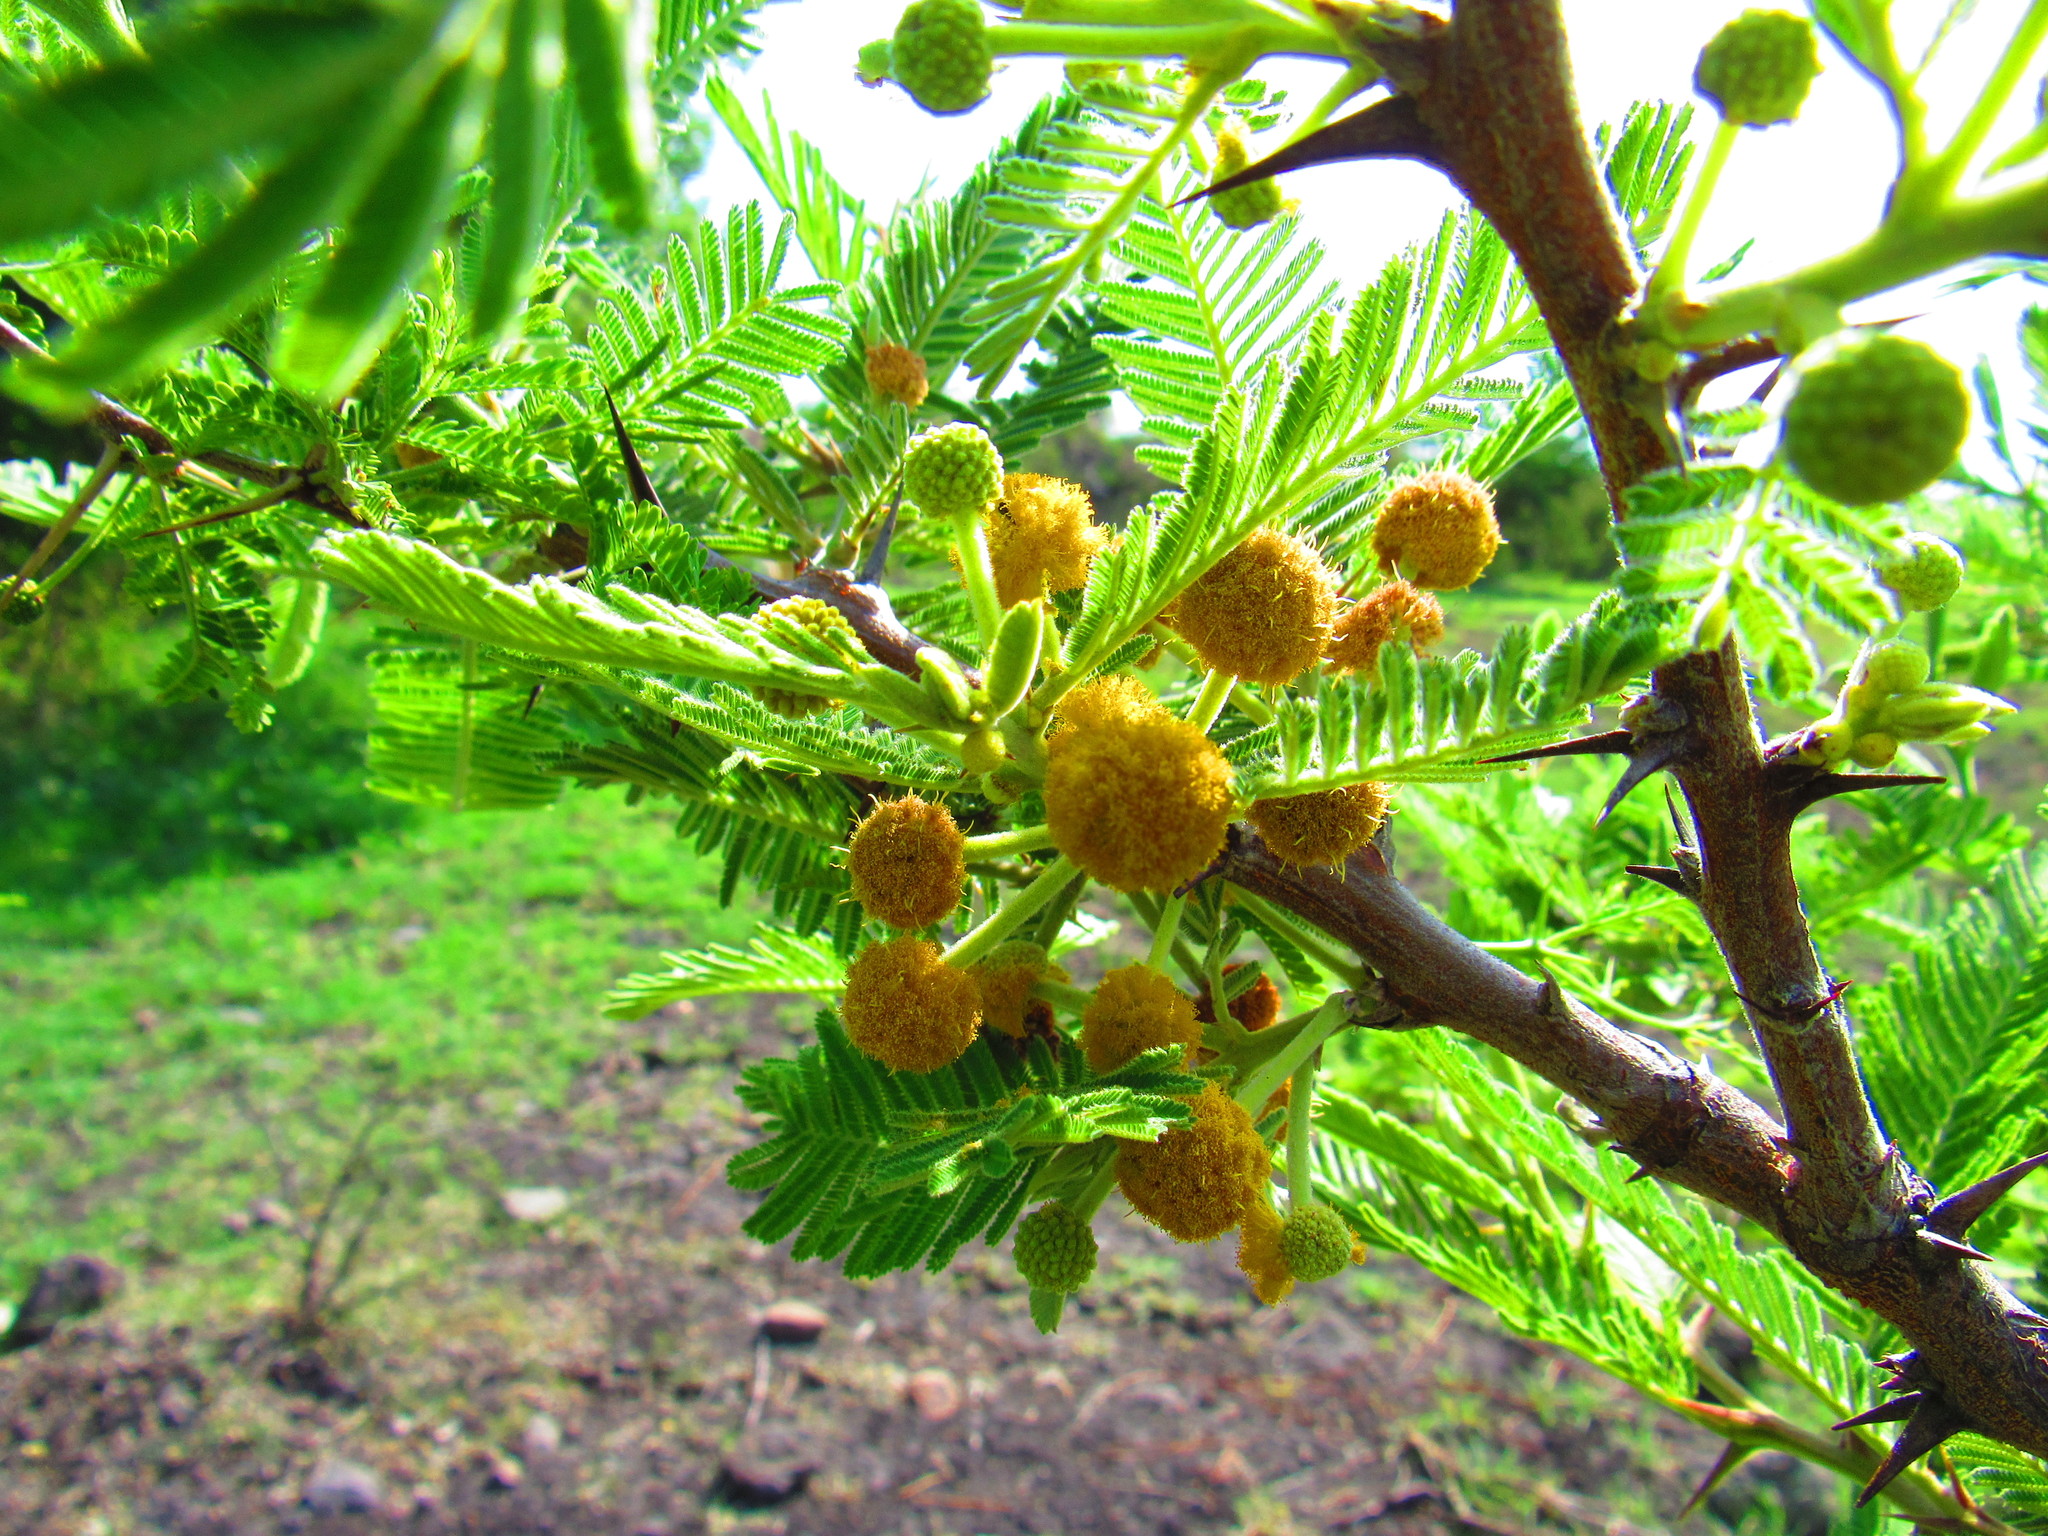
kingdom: Plantae
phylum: Tracheophyta
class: Magnoliopsida
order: Fabales
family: Fabaceae
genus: Vachellia
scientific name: Vachellia pennatula
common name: Fern-leaf acacia
